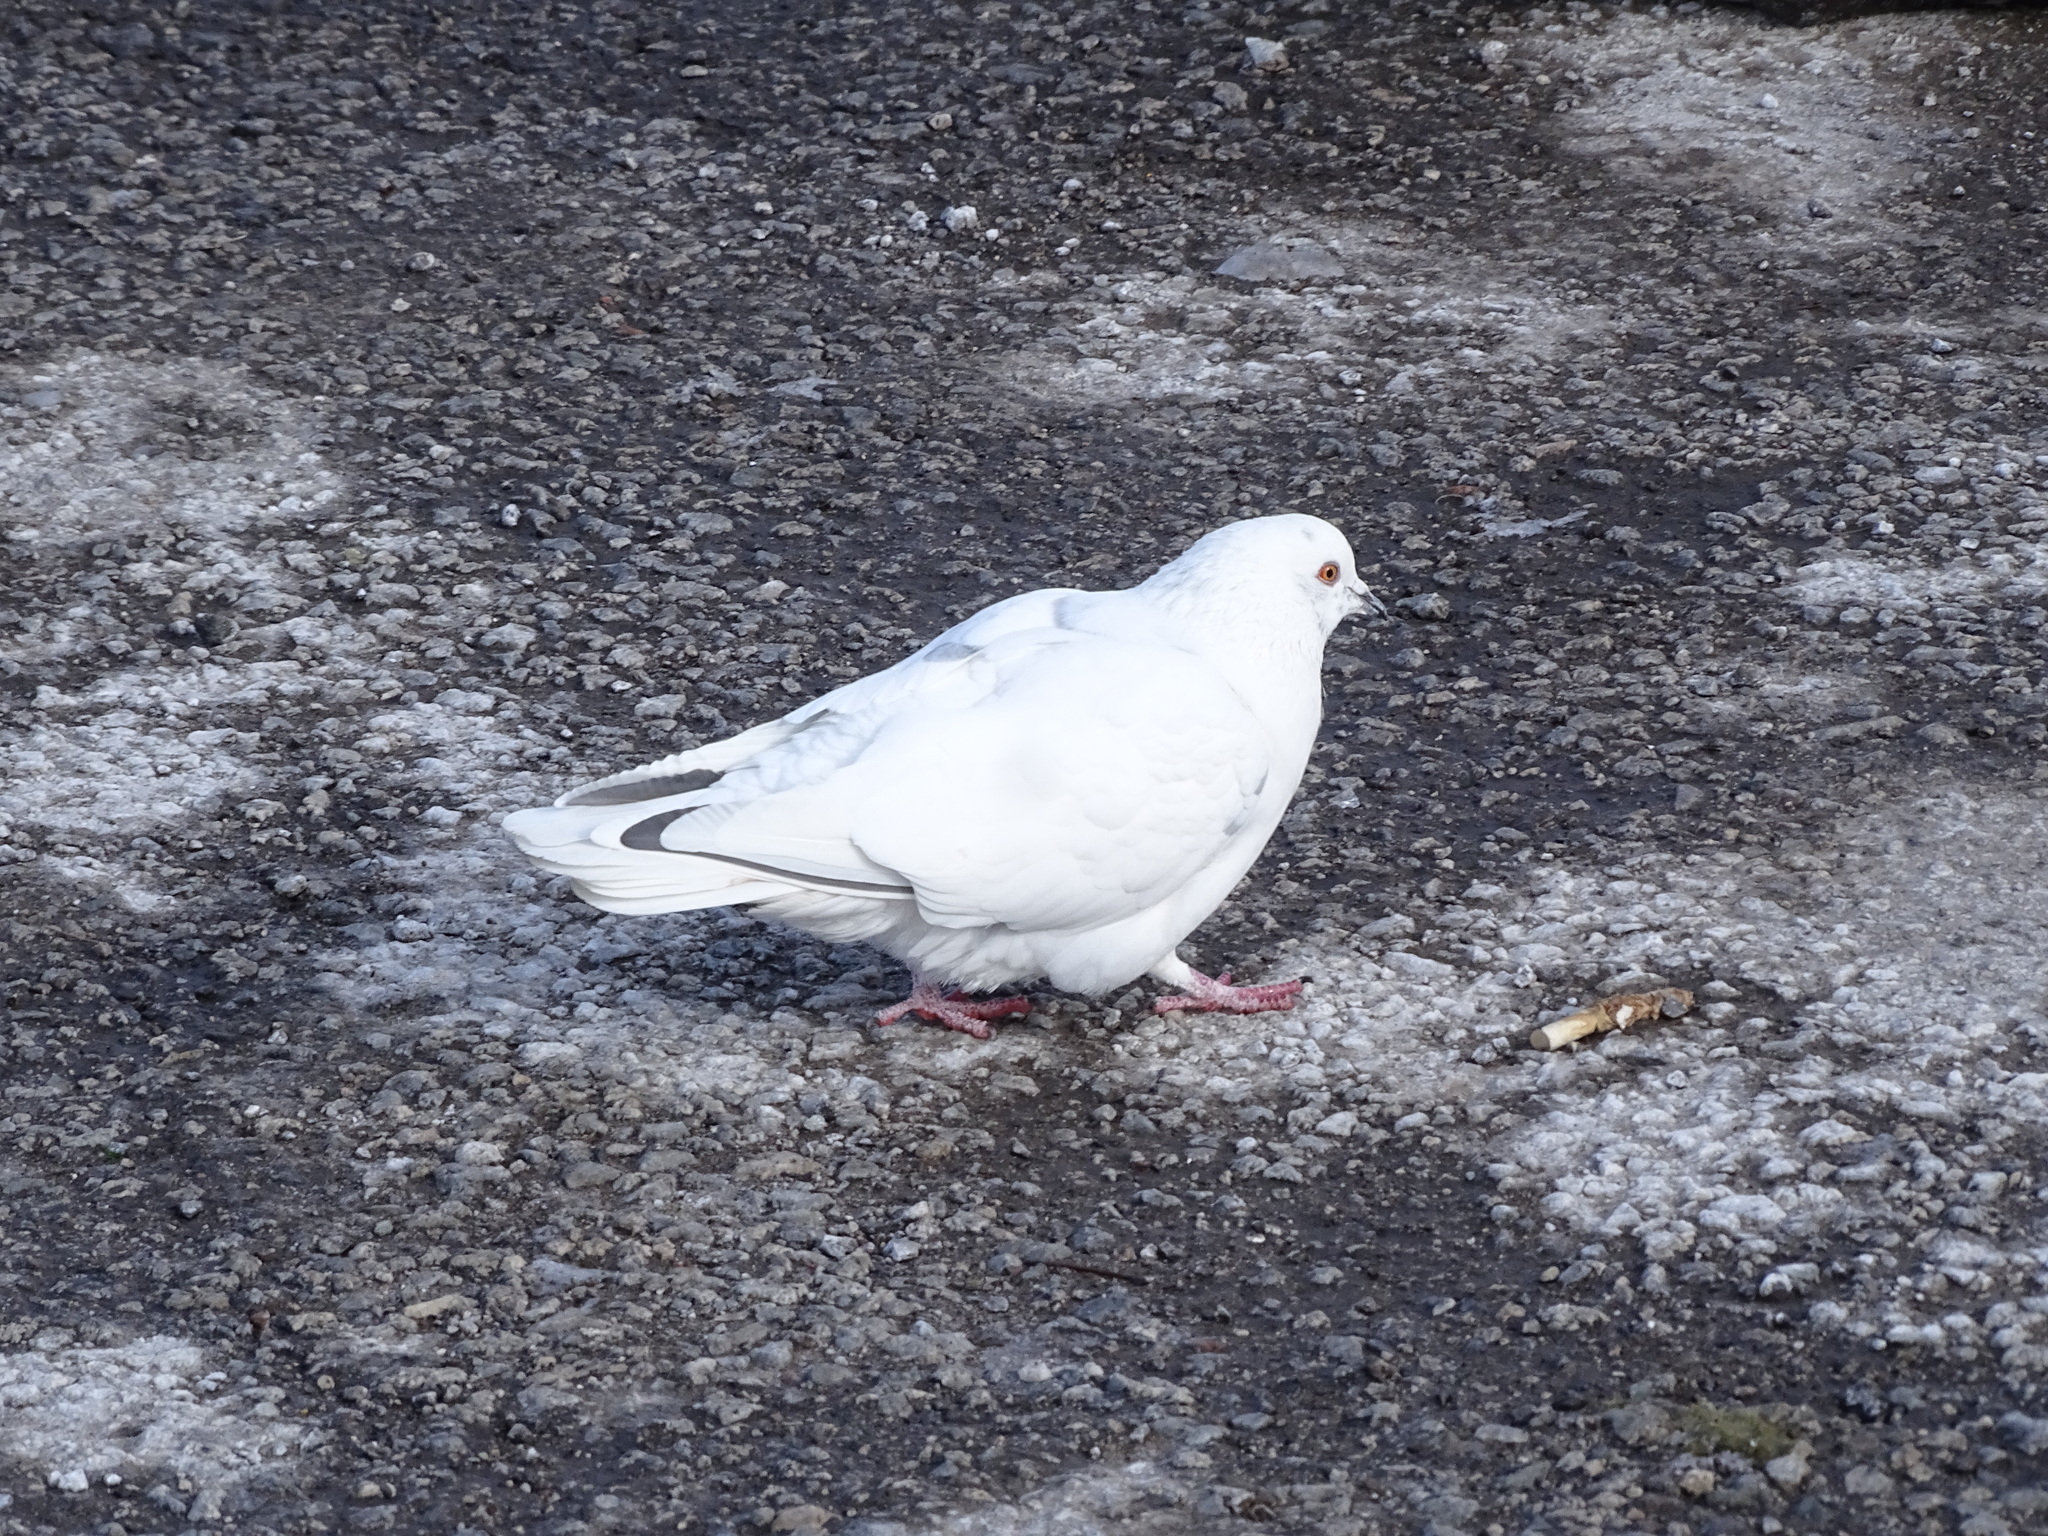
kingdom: Animalia
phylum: Chordata
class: Aves
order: Columbiformes
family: Columbidae
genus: Columba
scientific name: Columba livia
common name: Rock pigeon
